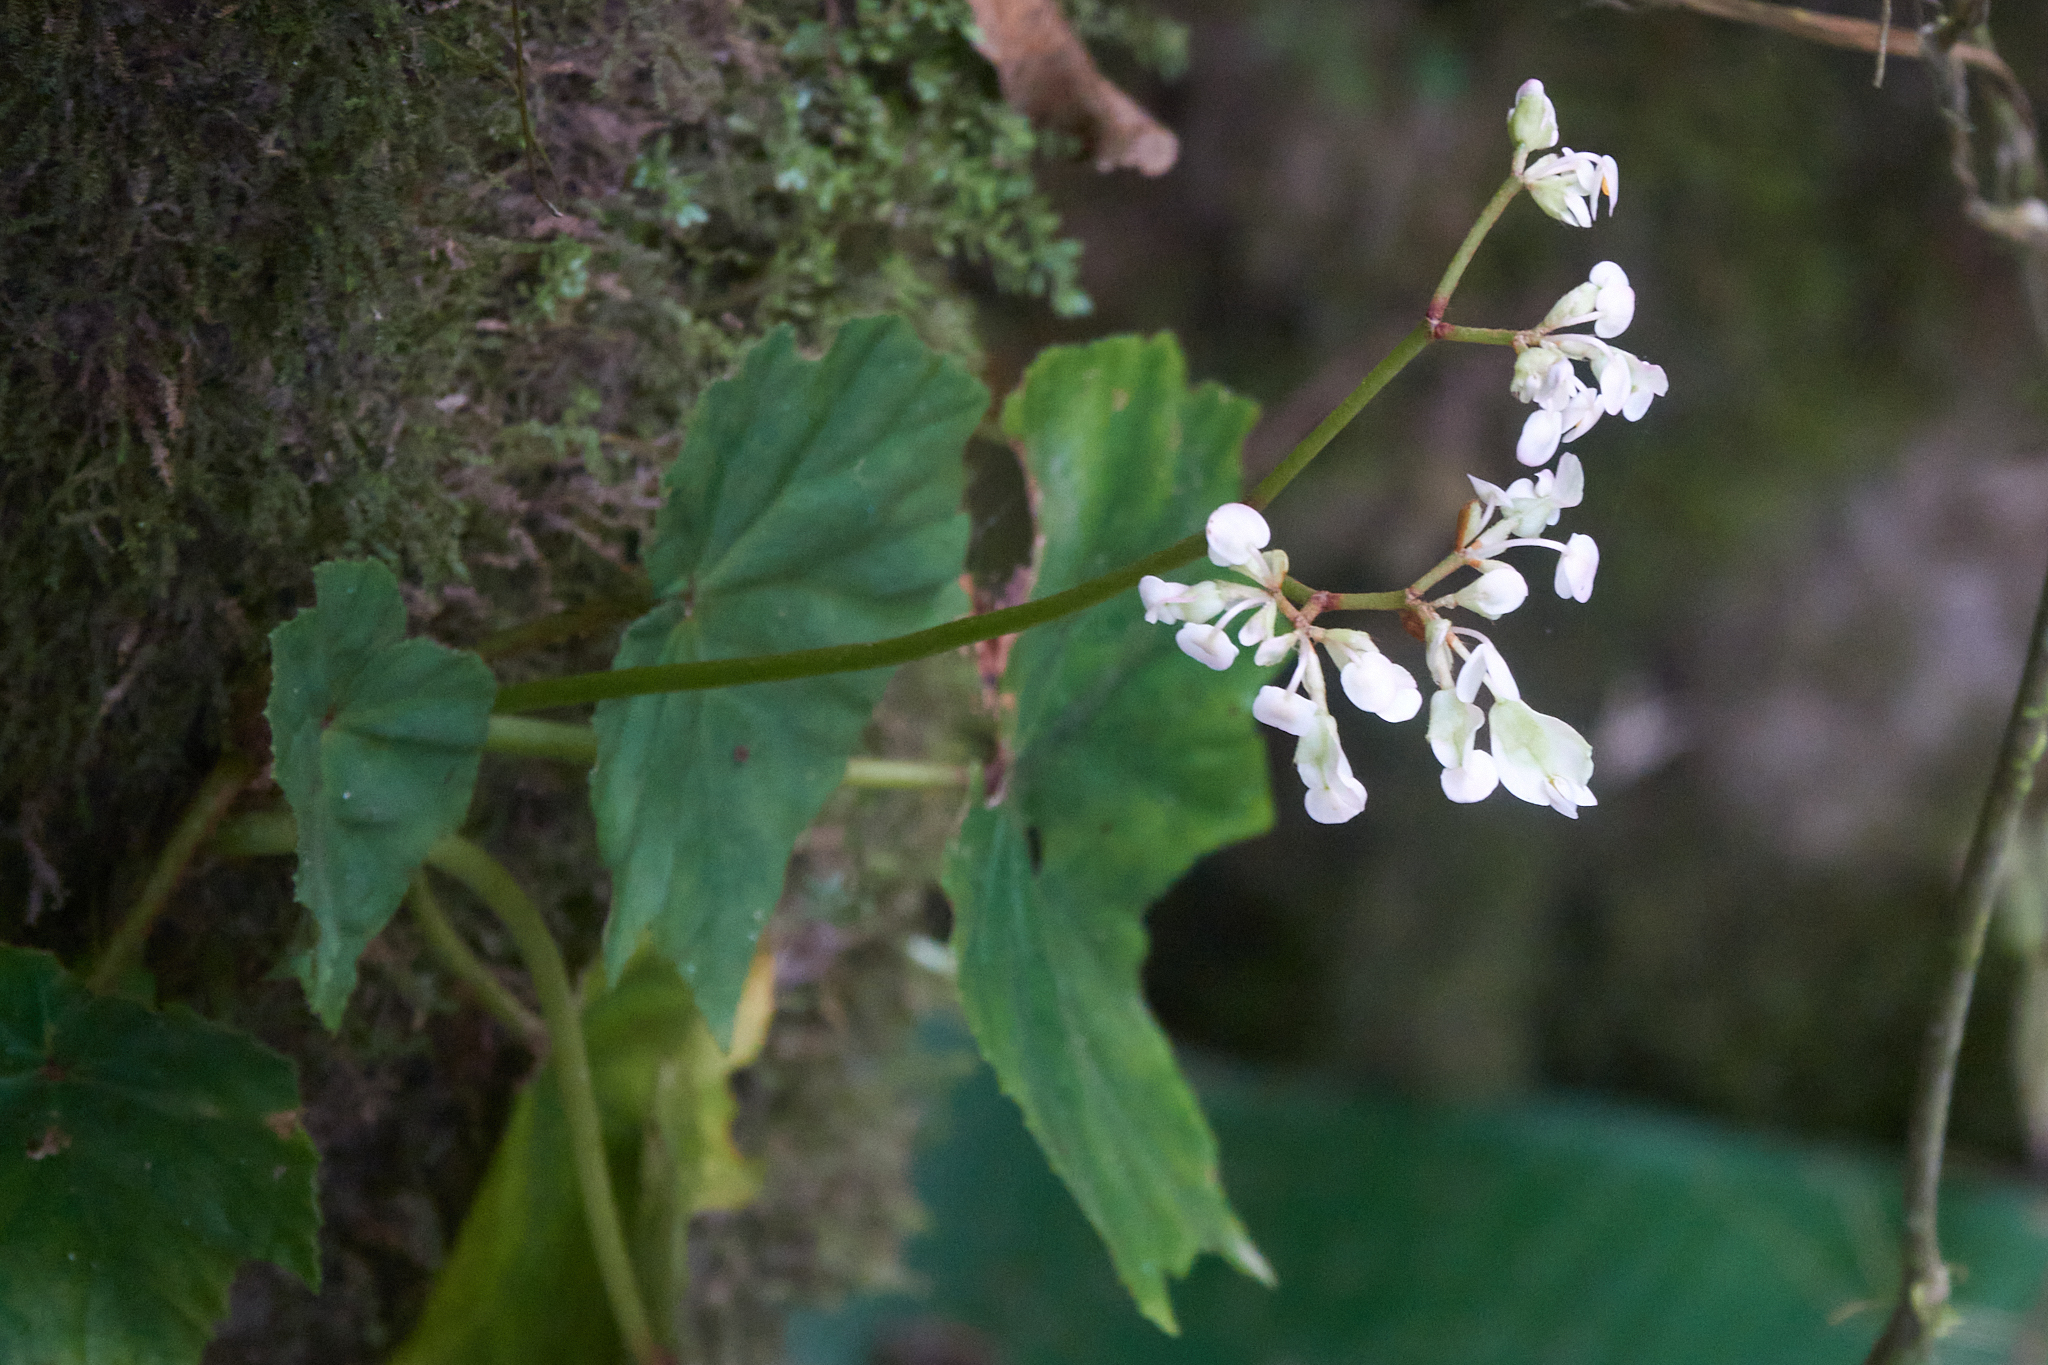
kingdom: Plantae
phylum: Tracheophyta
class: Magnoliopsida
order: Cucurbitales
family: Begoniaceae
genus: Begonia
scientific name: Begonia sericoneura
